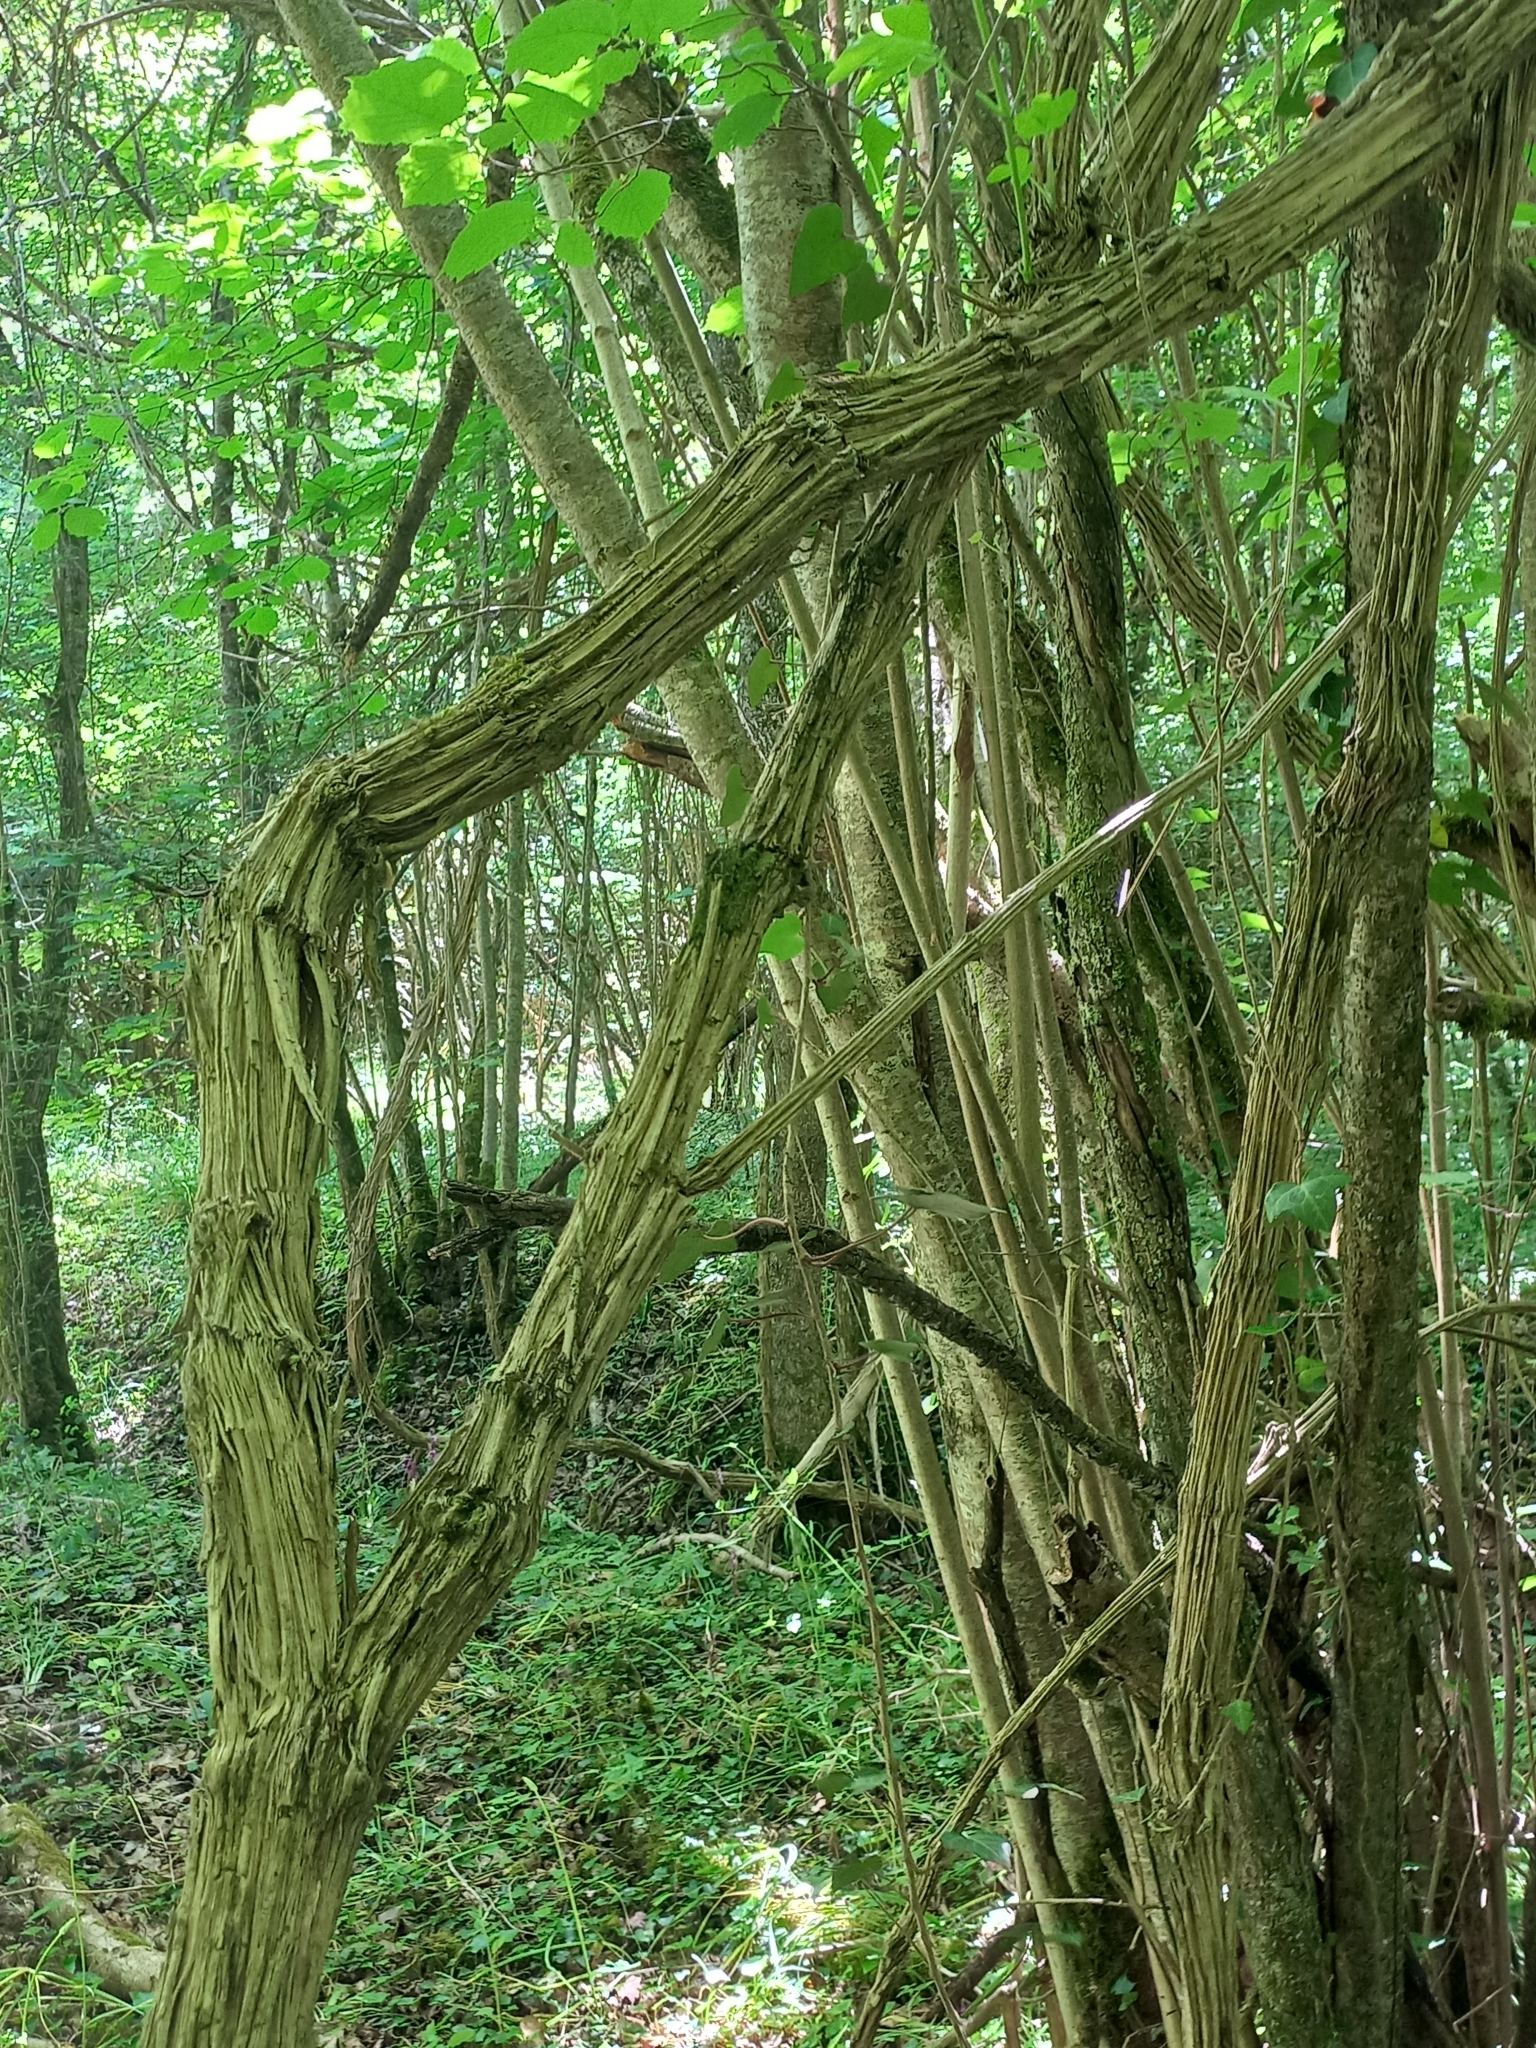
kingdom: Plantae
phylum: Tracheophyta
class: Magnoliopsida
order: Ranunculales
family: Ranunculaceae
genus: Clematis
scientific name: Clematis vitalba
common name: Evergreen clematis
